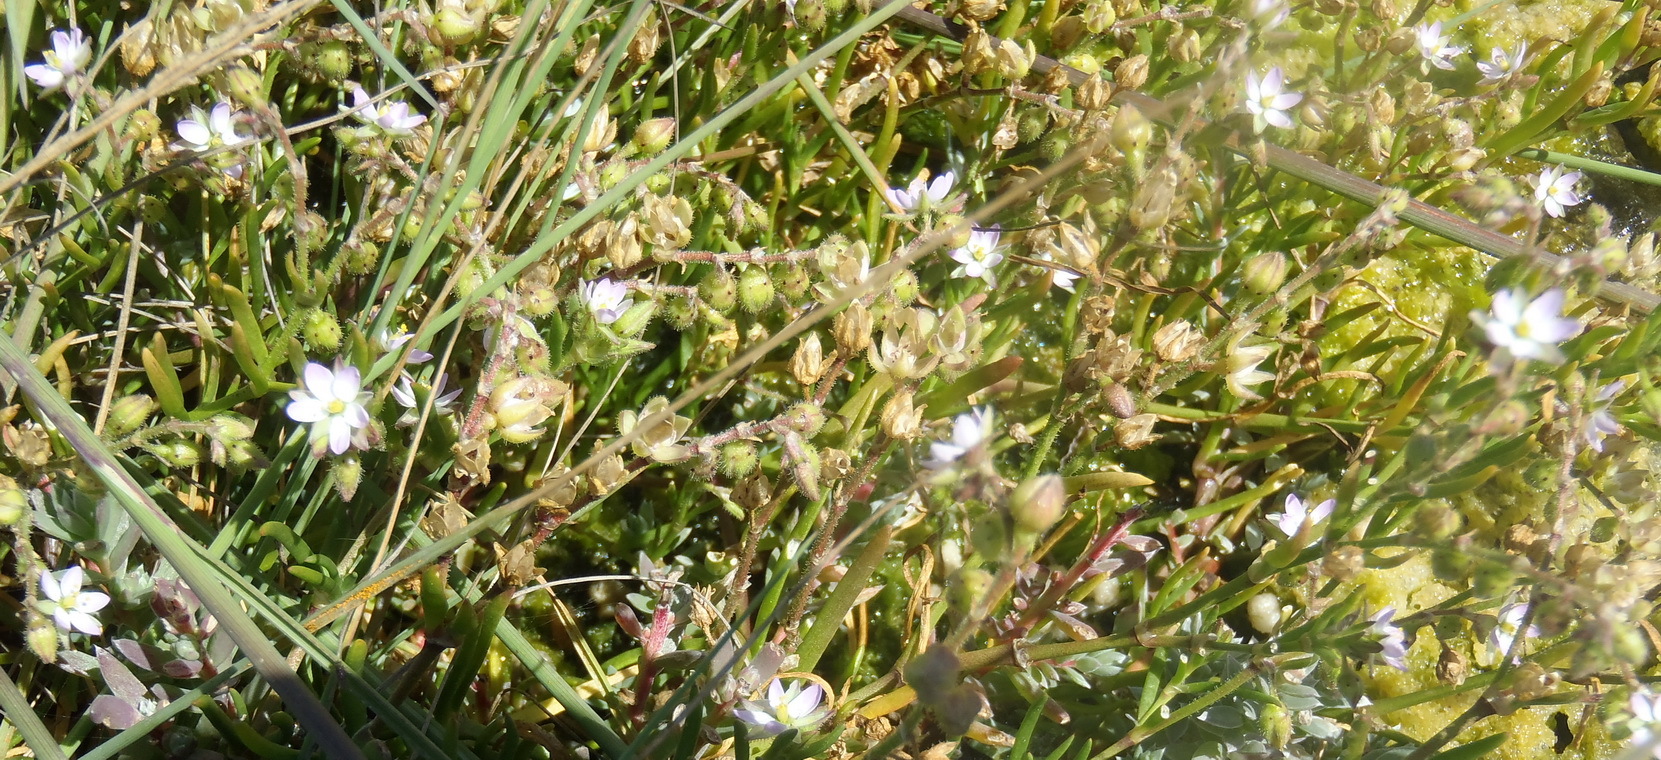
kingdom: Plantae
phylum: Tracheophyta
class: Magnoliopsida
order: Caryophyllales
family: Caryophyllaceae
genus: Spergularia
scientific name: Spergularia media
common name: Greater sea-spurrey
